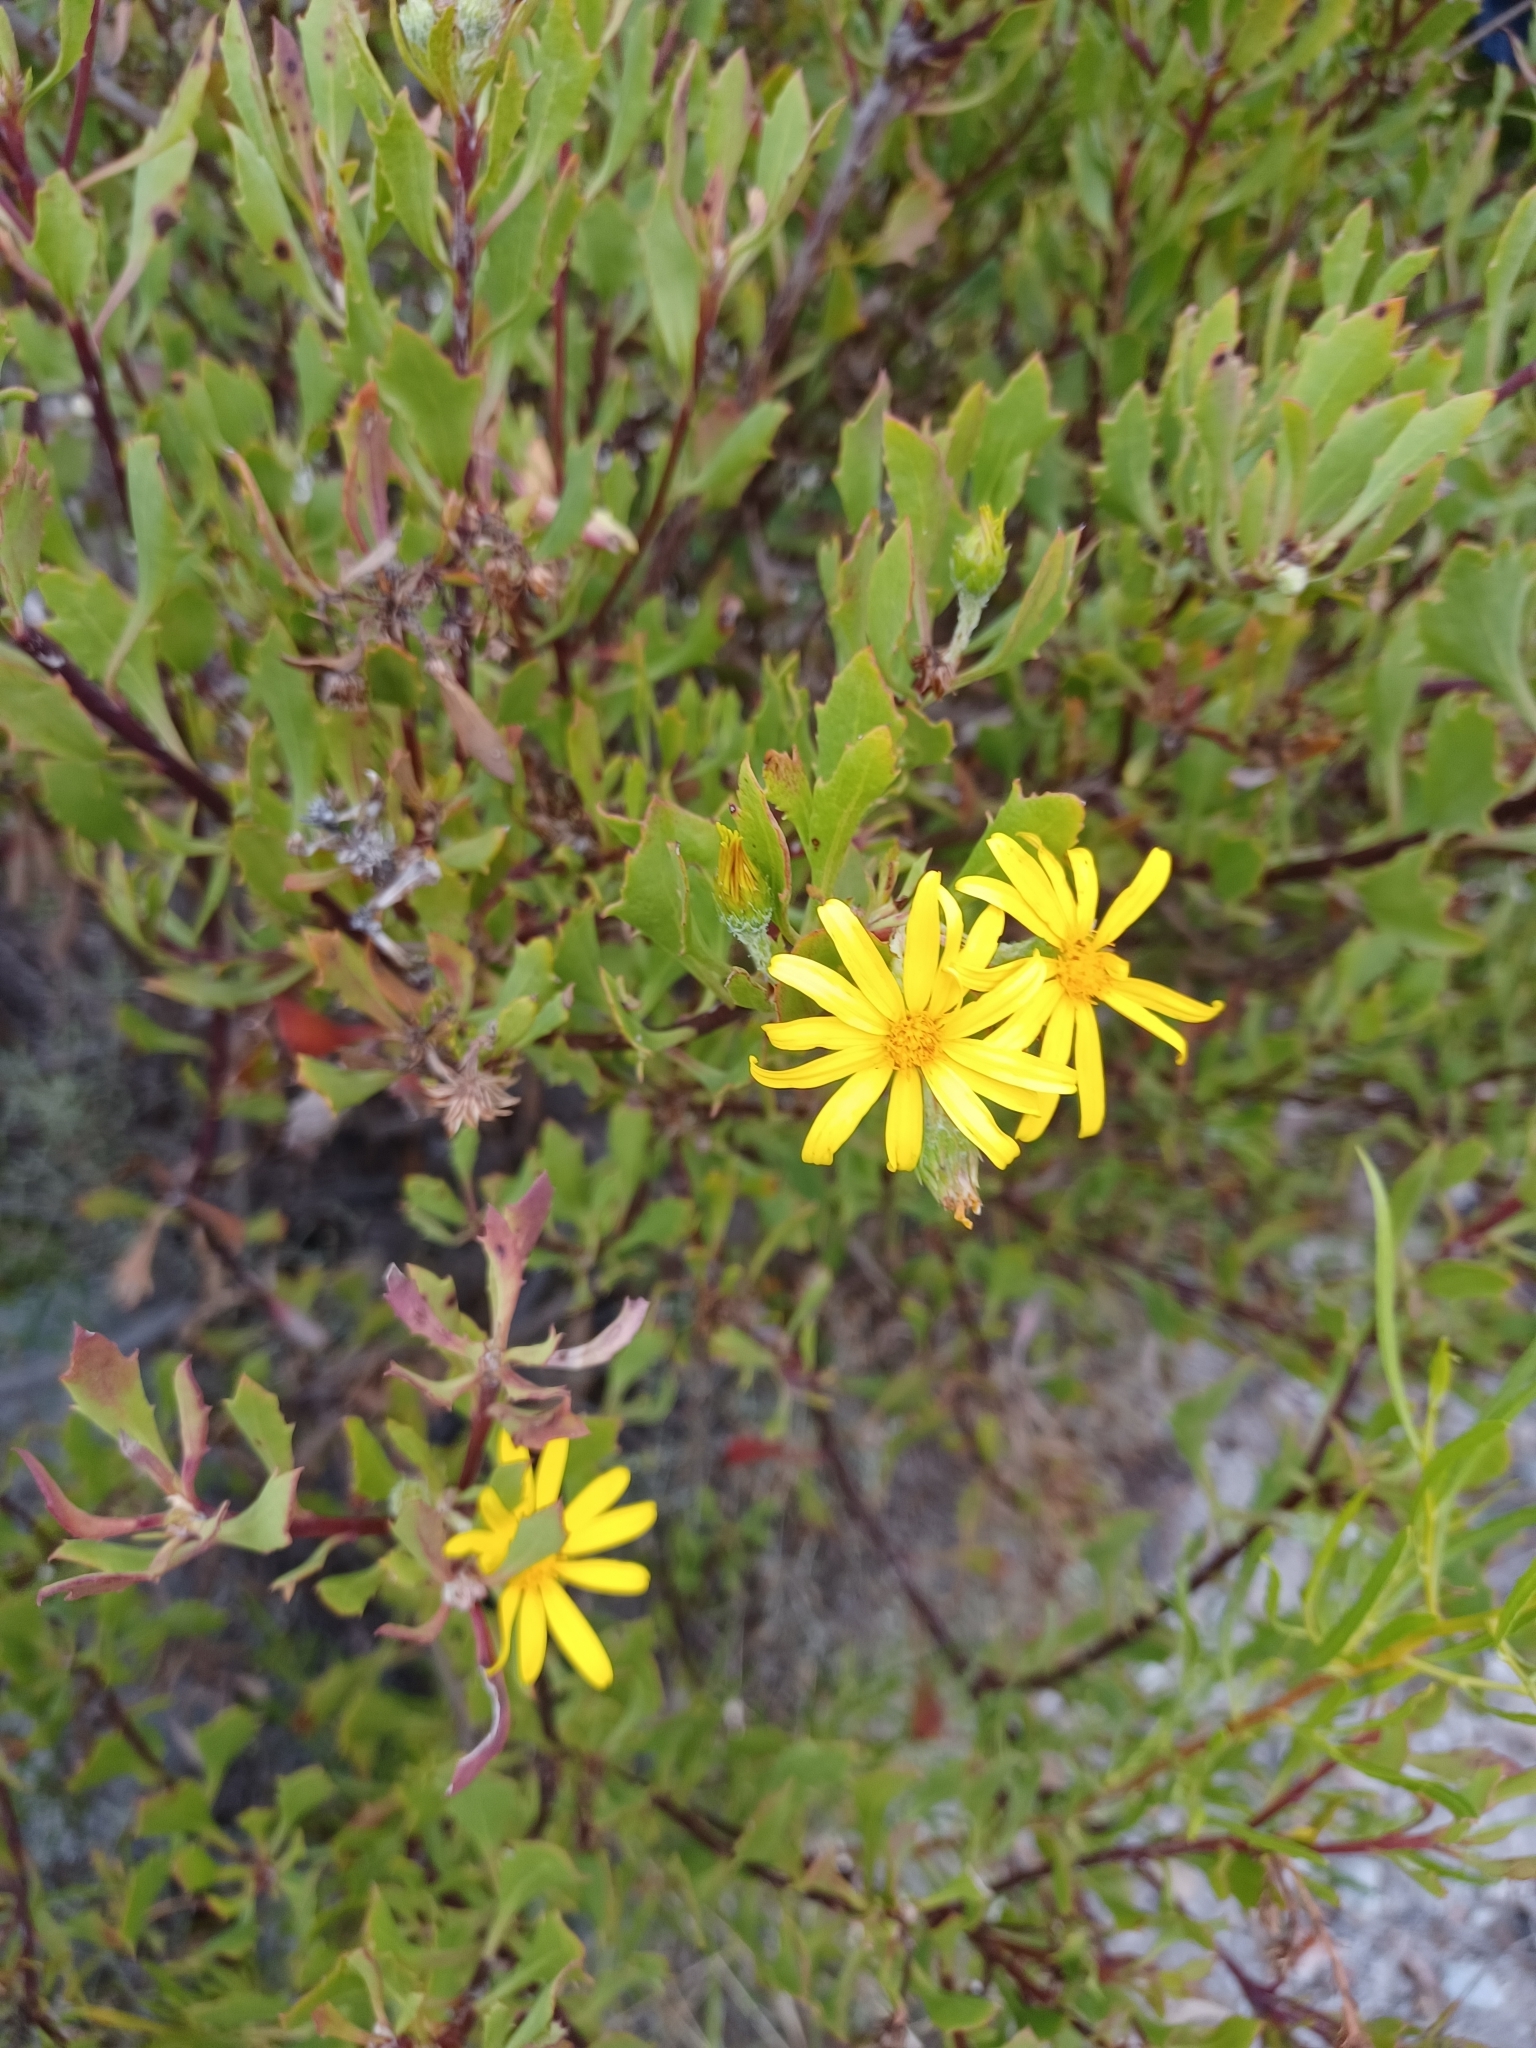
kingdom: Plantae
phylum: Tracheophyta
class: Magnoliopsida
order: Asterales
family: Asteraceae
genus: Osteospermum
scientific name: Osteospermum moniliferum
